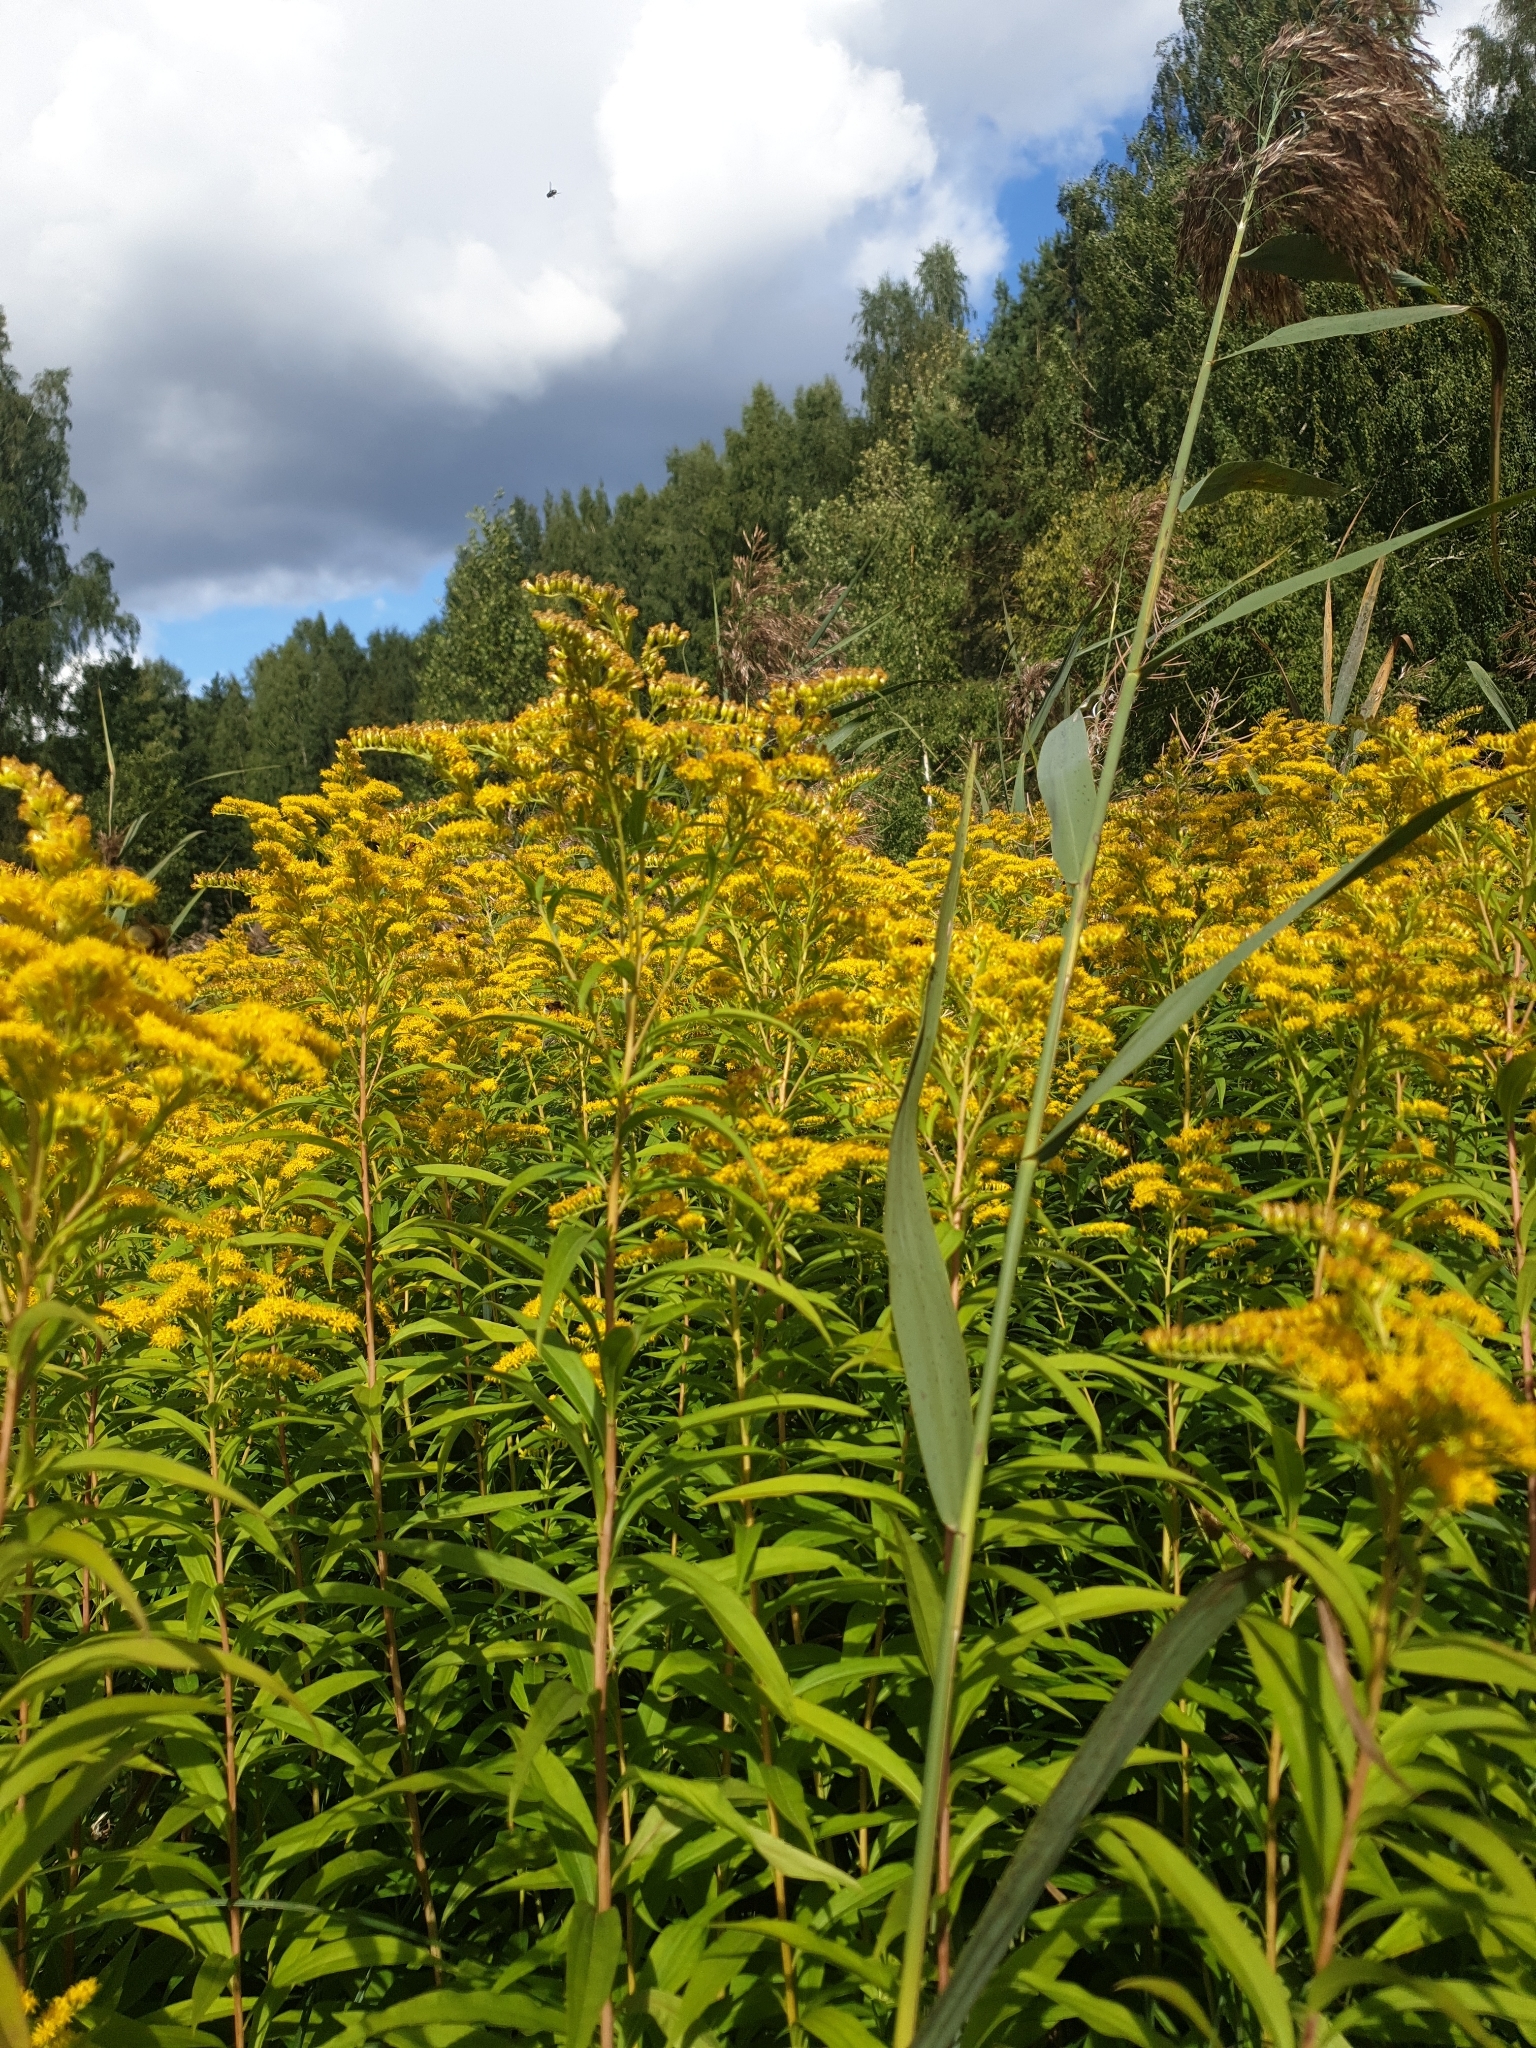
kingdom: Plantae
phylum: Tracheophyta
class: Magnoliopsida
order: Asterales
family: Asteraceae
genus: Solidago
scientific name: Solidago gigantea
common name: Giant goldenrod
